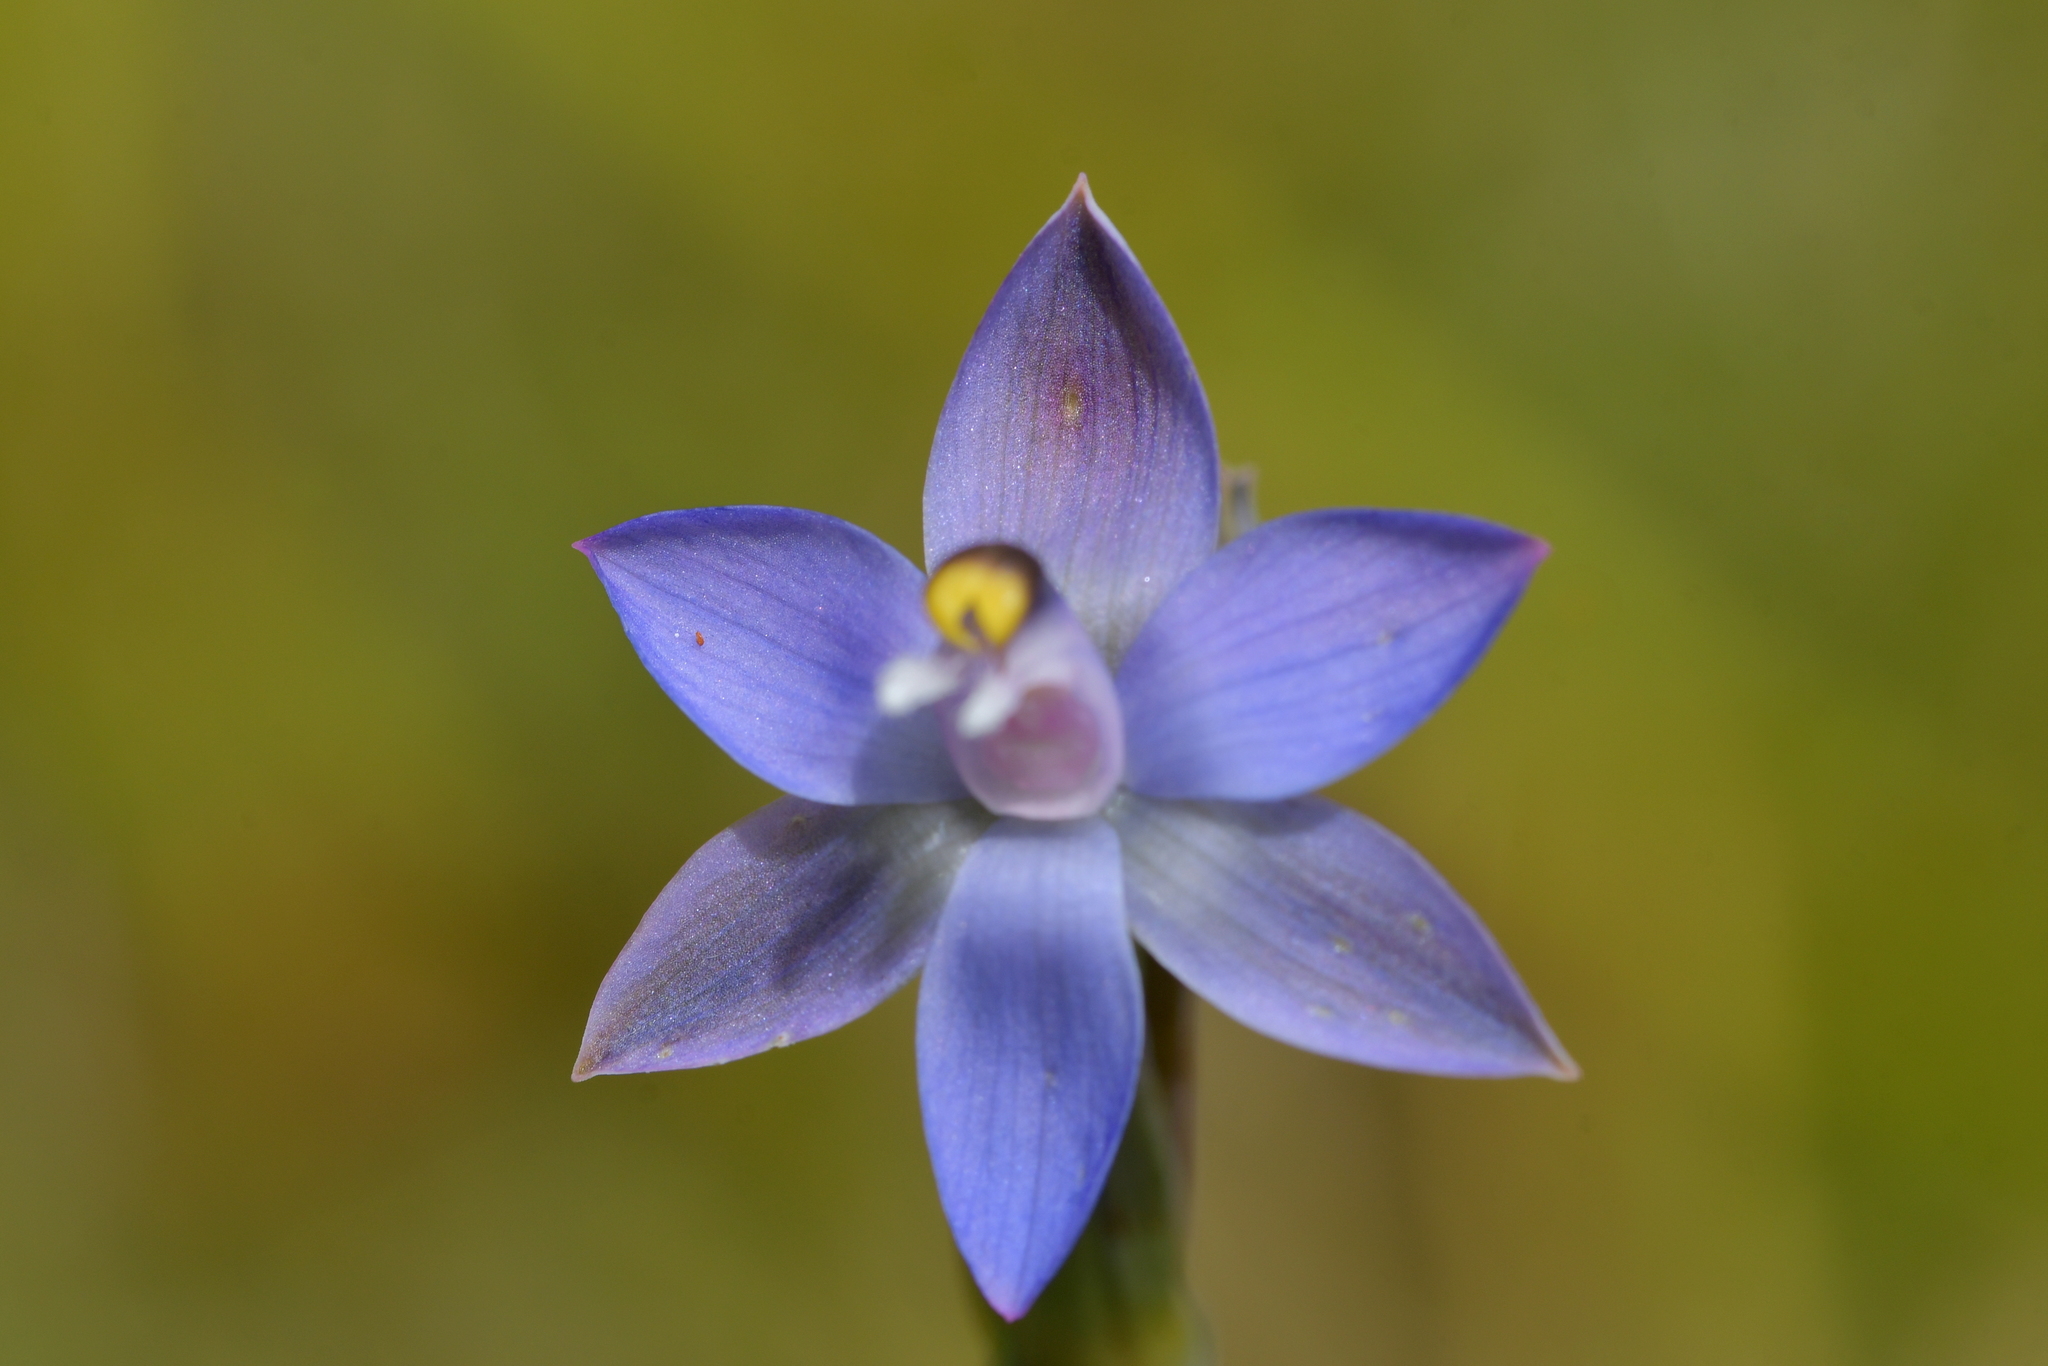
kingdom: Plantae
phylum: Tracheophyta
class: Liliopsida
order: Asparagales
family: Orchidaceae
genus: Thelymitra
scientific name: Thelymitra pauciflora
